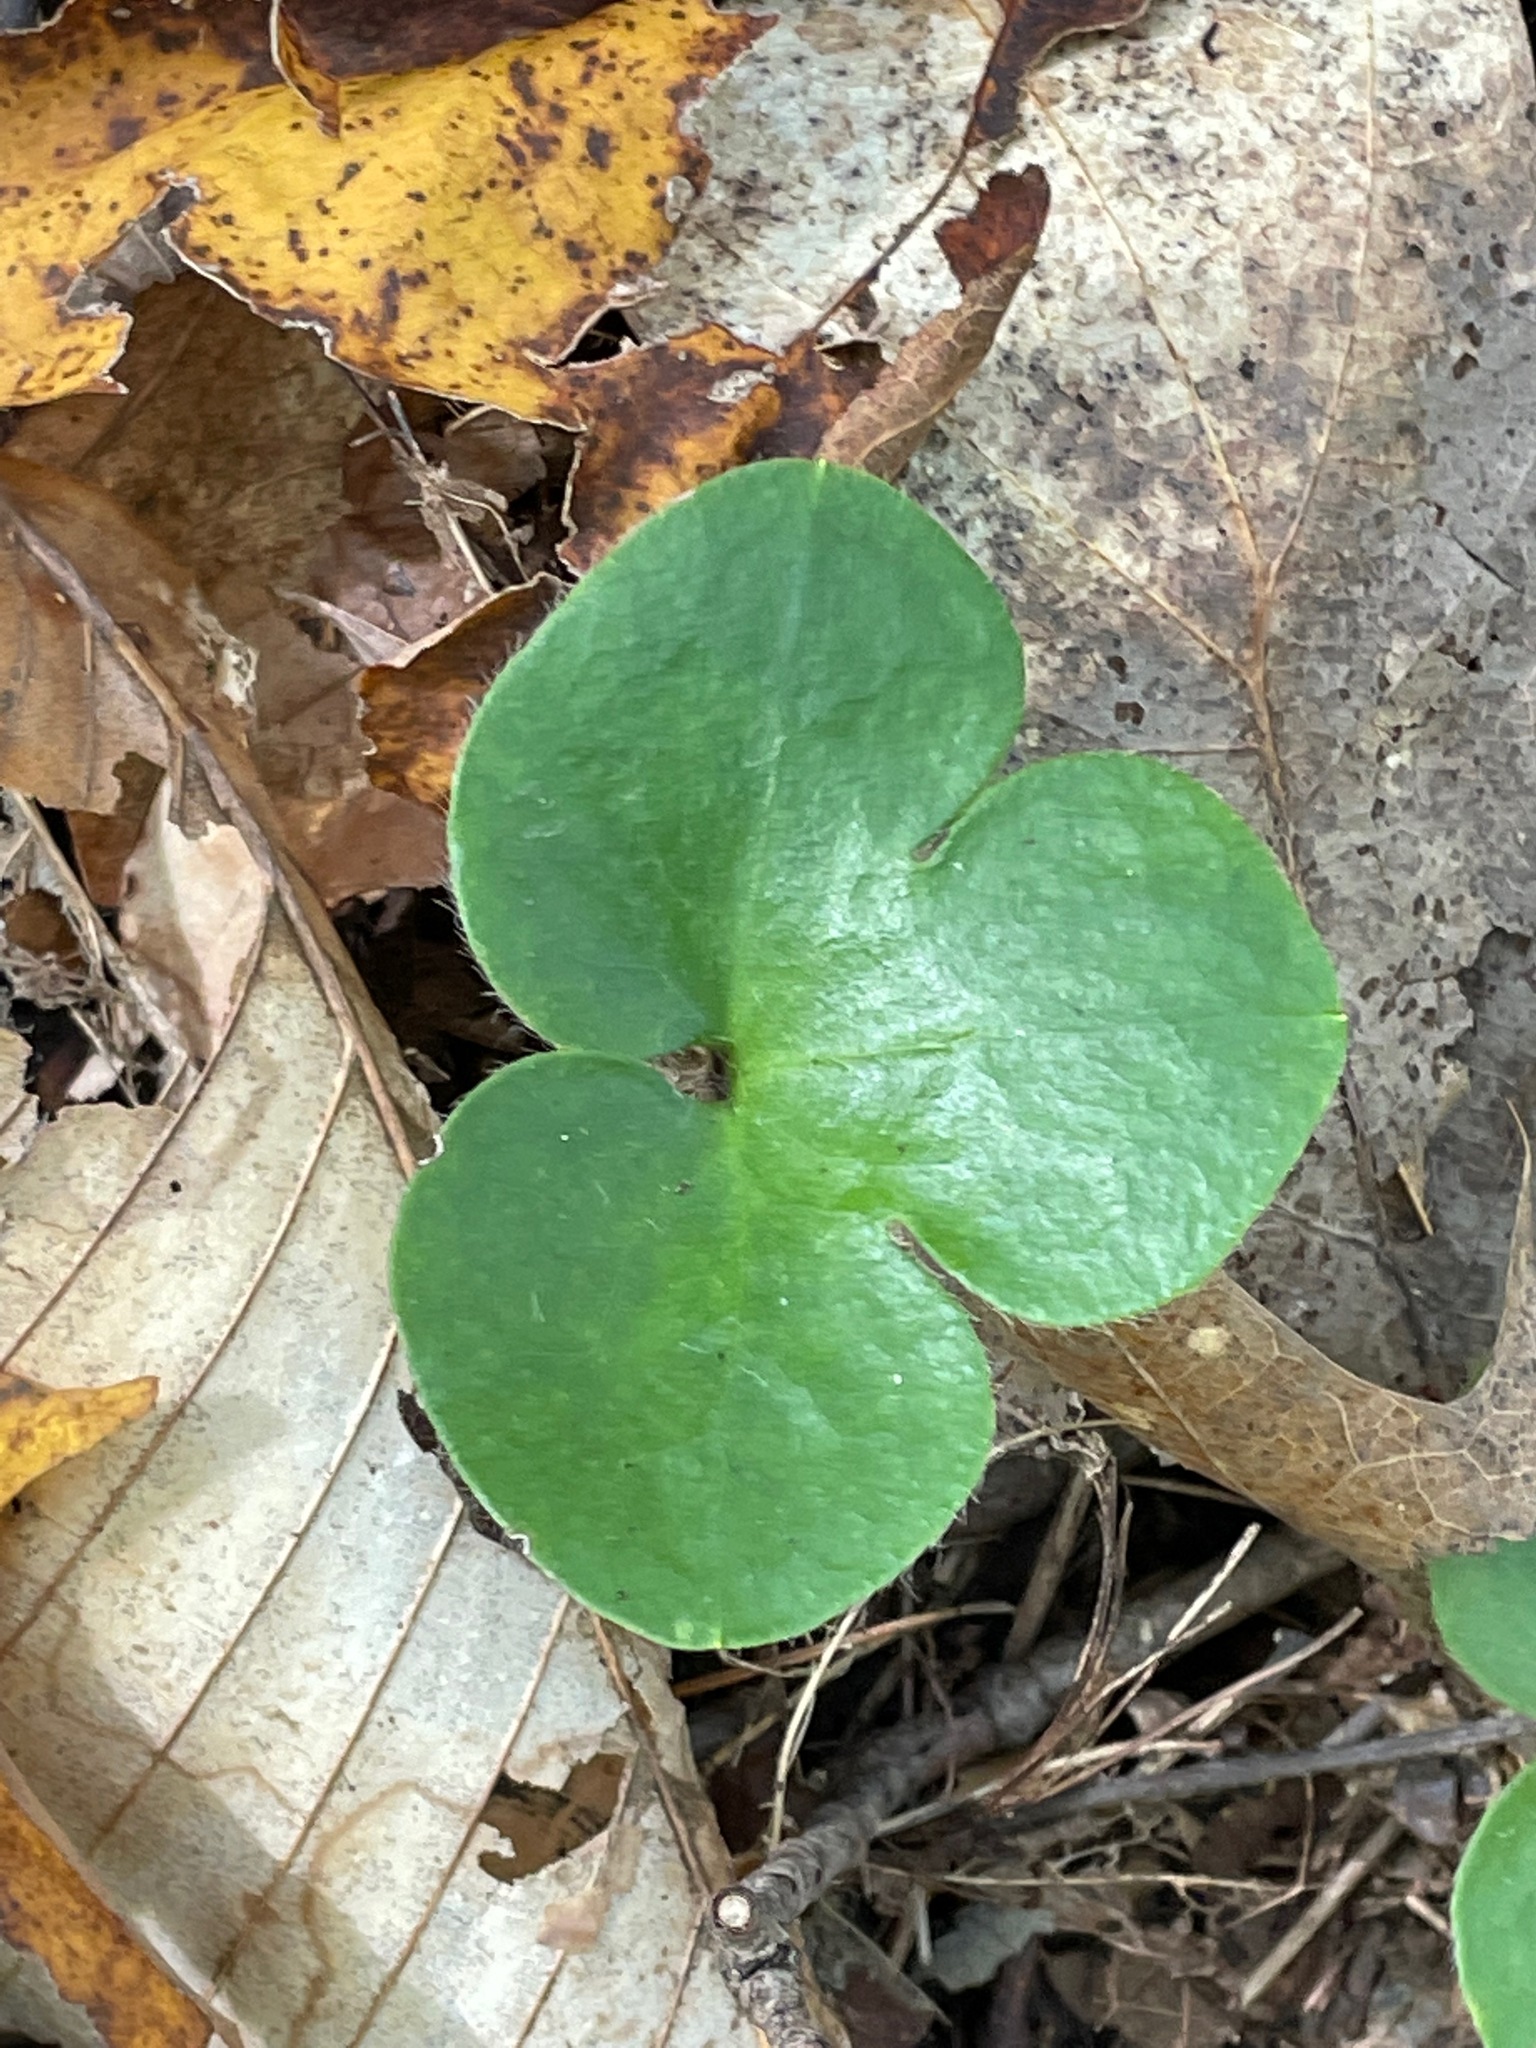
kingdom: Plantae
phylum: Tracheophyta
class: Magnoliopsida
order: Ranunculales
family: Ranunculaceae
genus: Hepatica
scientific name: Hepatica americana
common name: American hepatica
